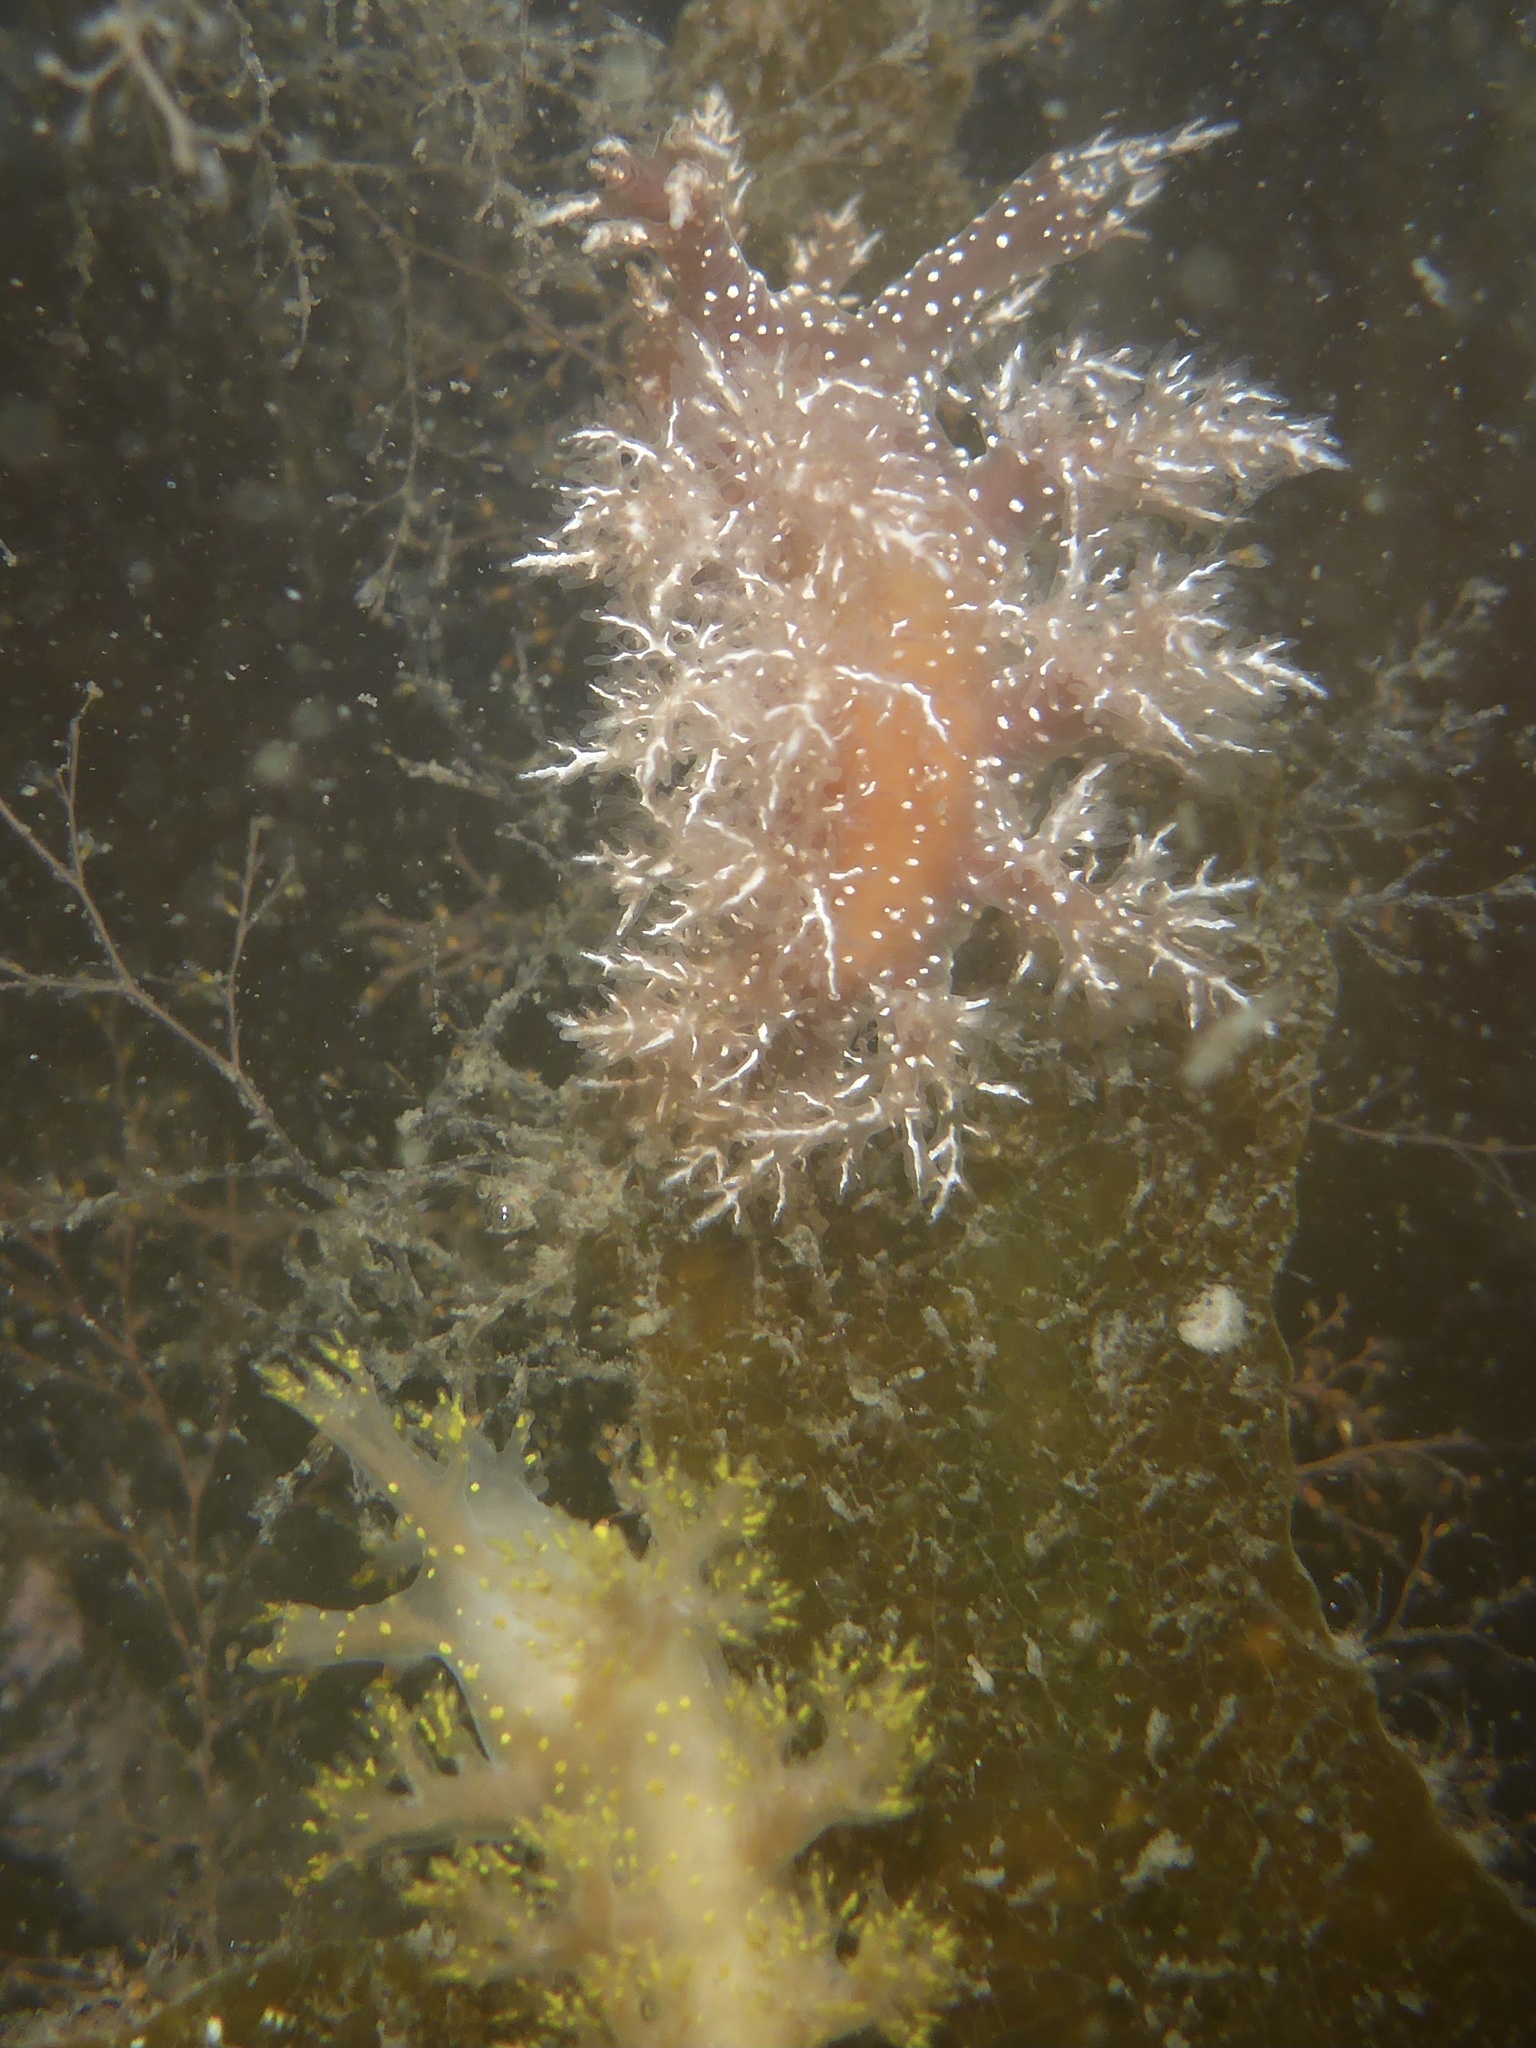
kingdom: Animalia
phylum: Mollusca
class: Gastropoda
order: Nudibranchia
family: Dendronotidae
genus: Dendronotus
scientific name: Dendronotus venustus
